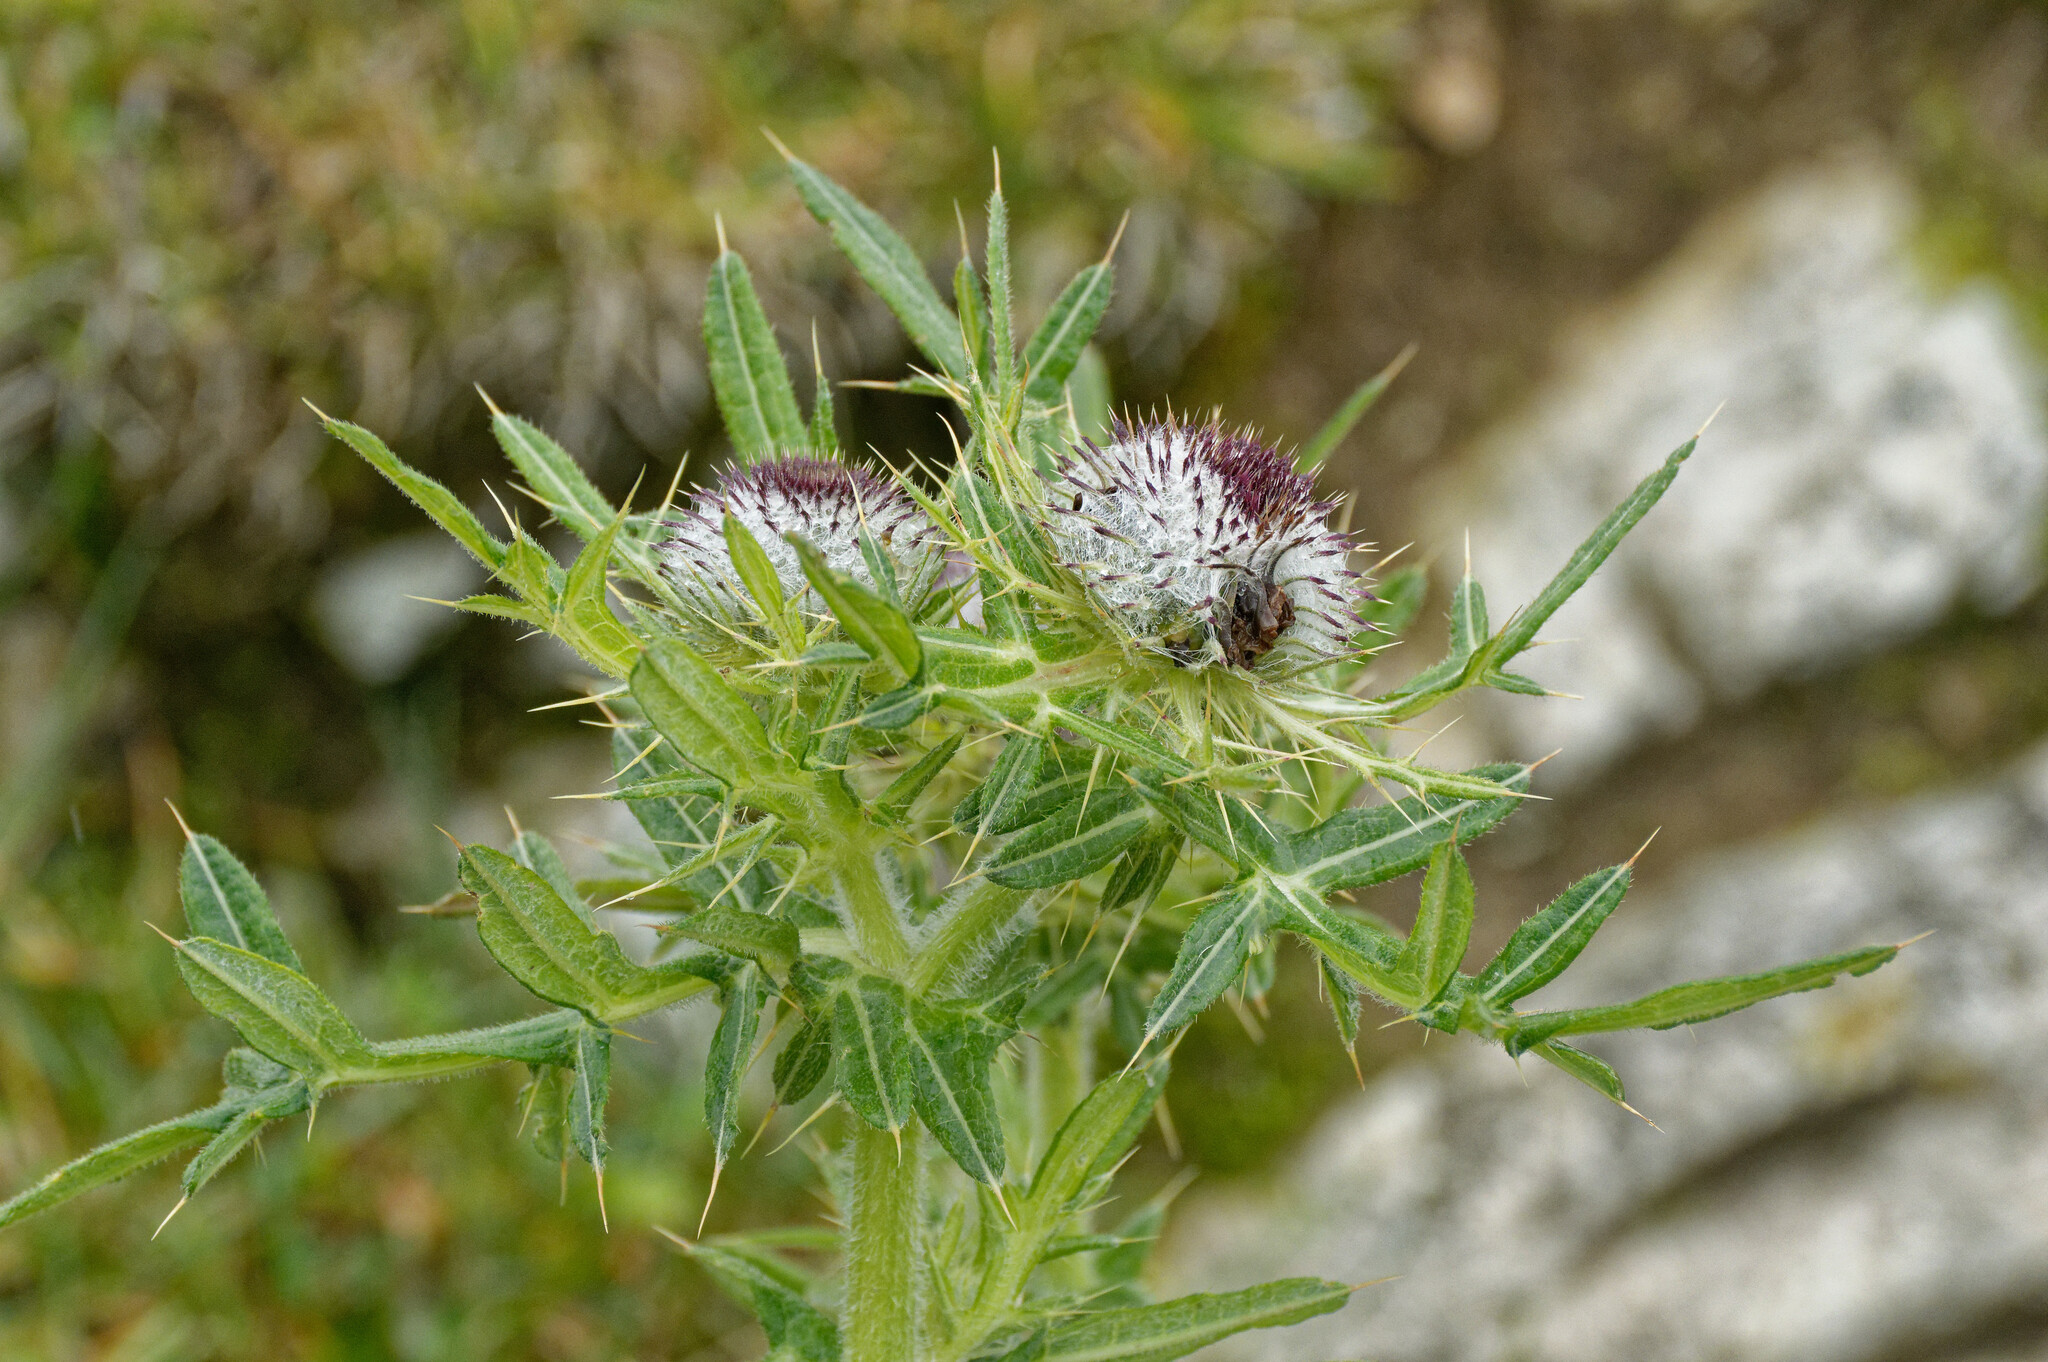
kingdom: Plantae
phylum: Tracheophyta
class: Magnoliopsida
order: Asterales
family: Asteraceae
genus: Lophiolepis
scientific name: Lophiolepis eriophora
